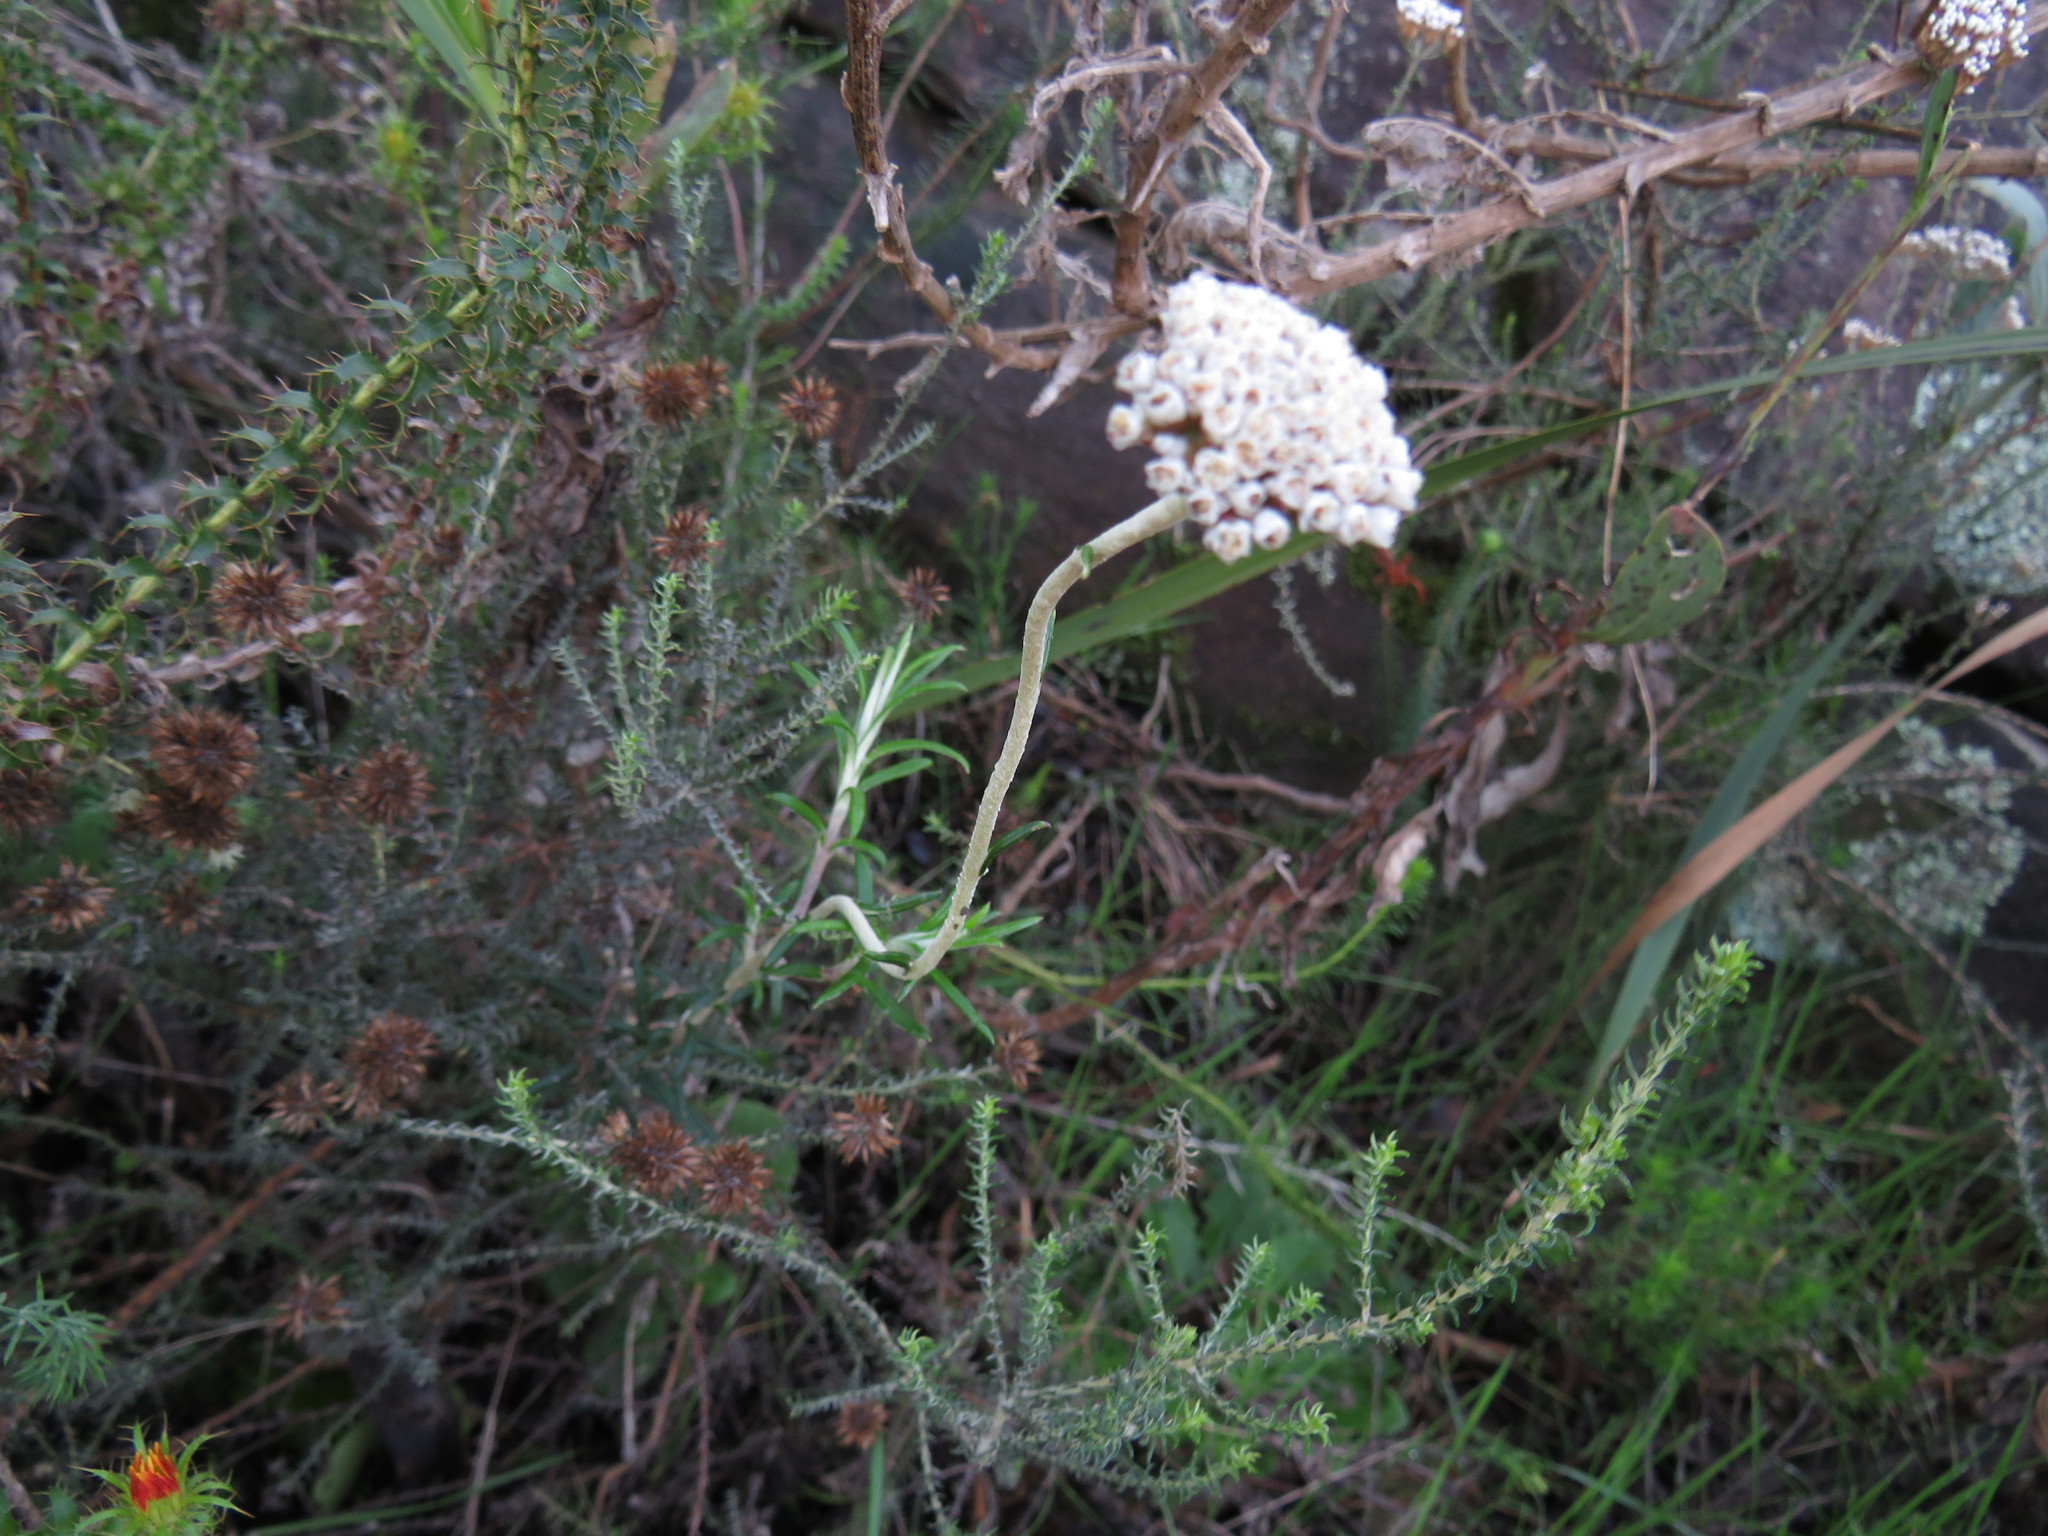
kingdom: Plantae
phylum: Tracheophyta
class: Magnoliopsida
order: Asterales
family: Asteraceae
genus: Anaxeton
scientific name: Anaxeton arborescens
